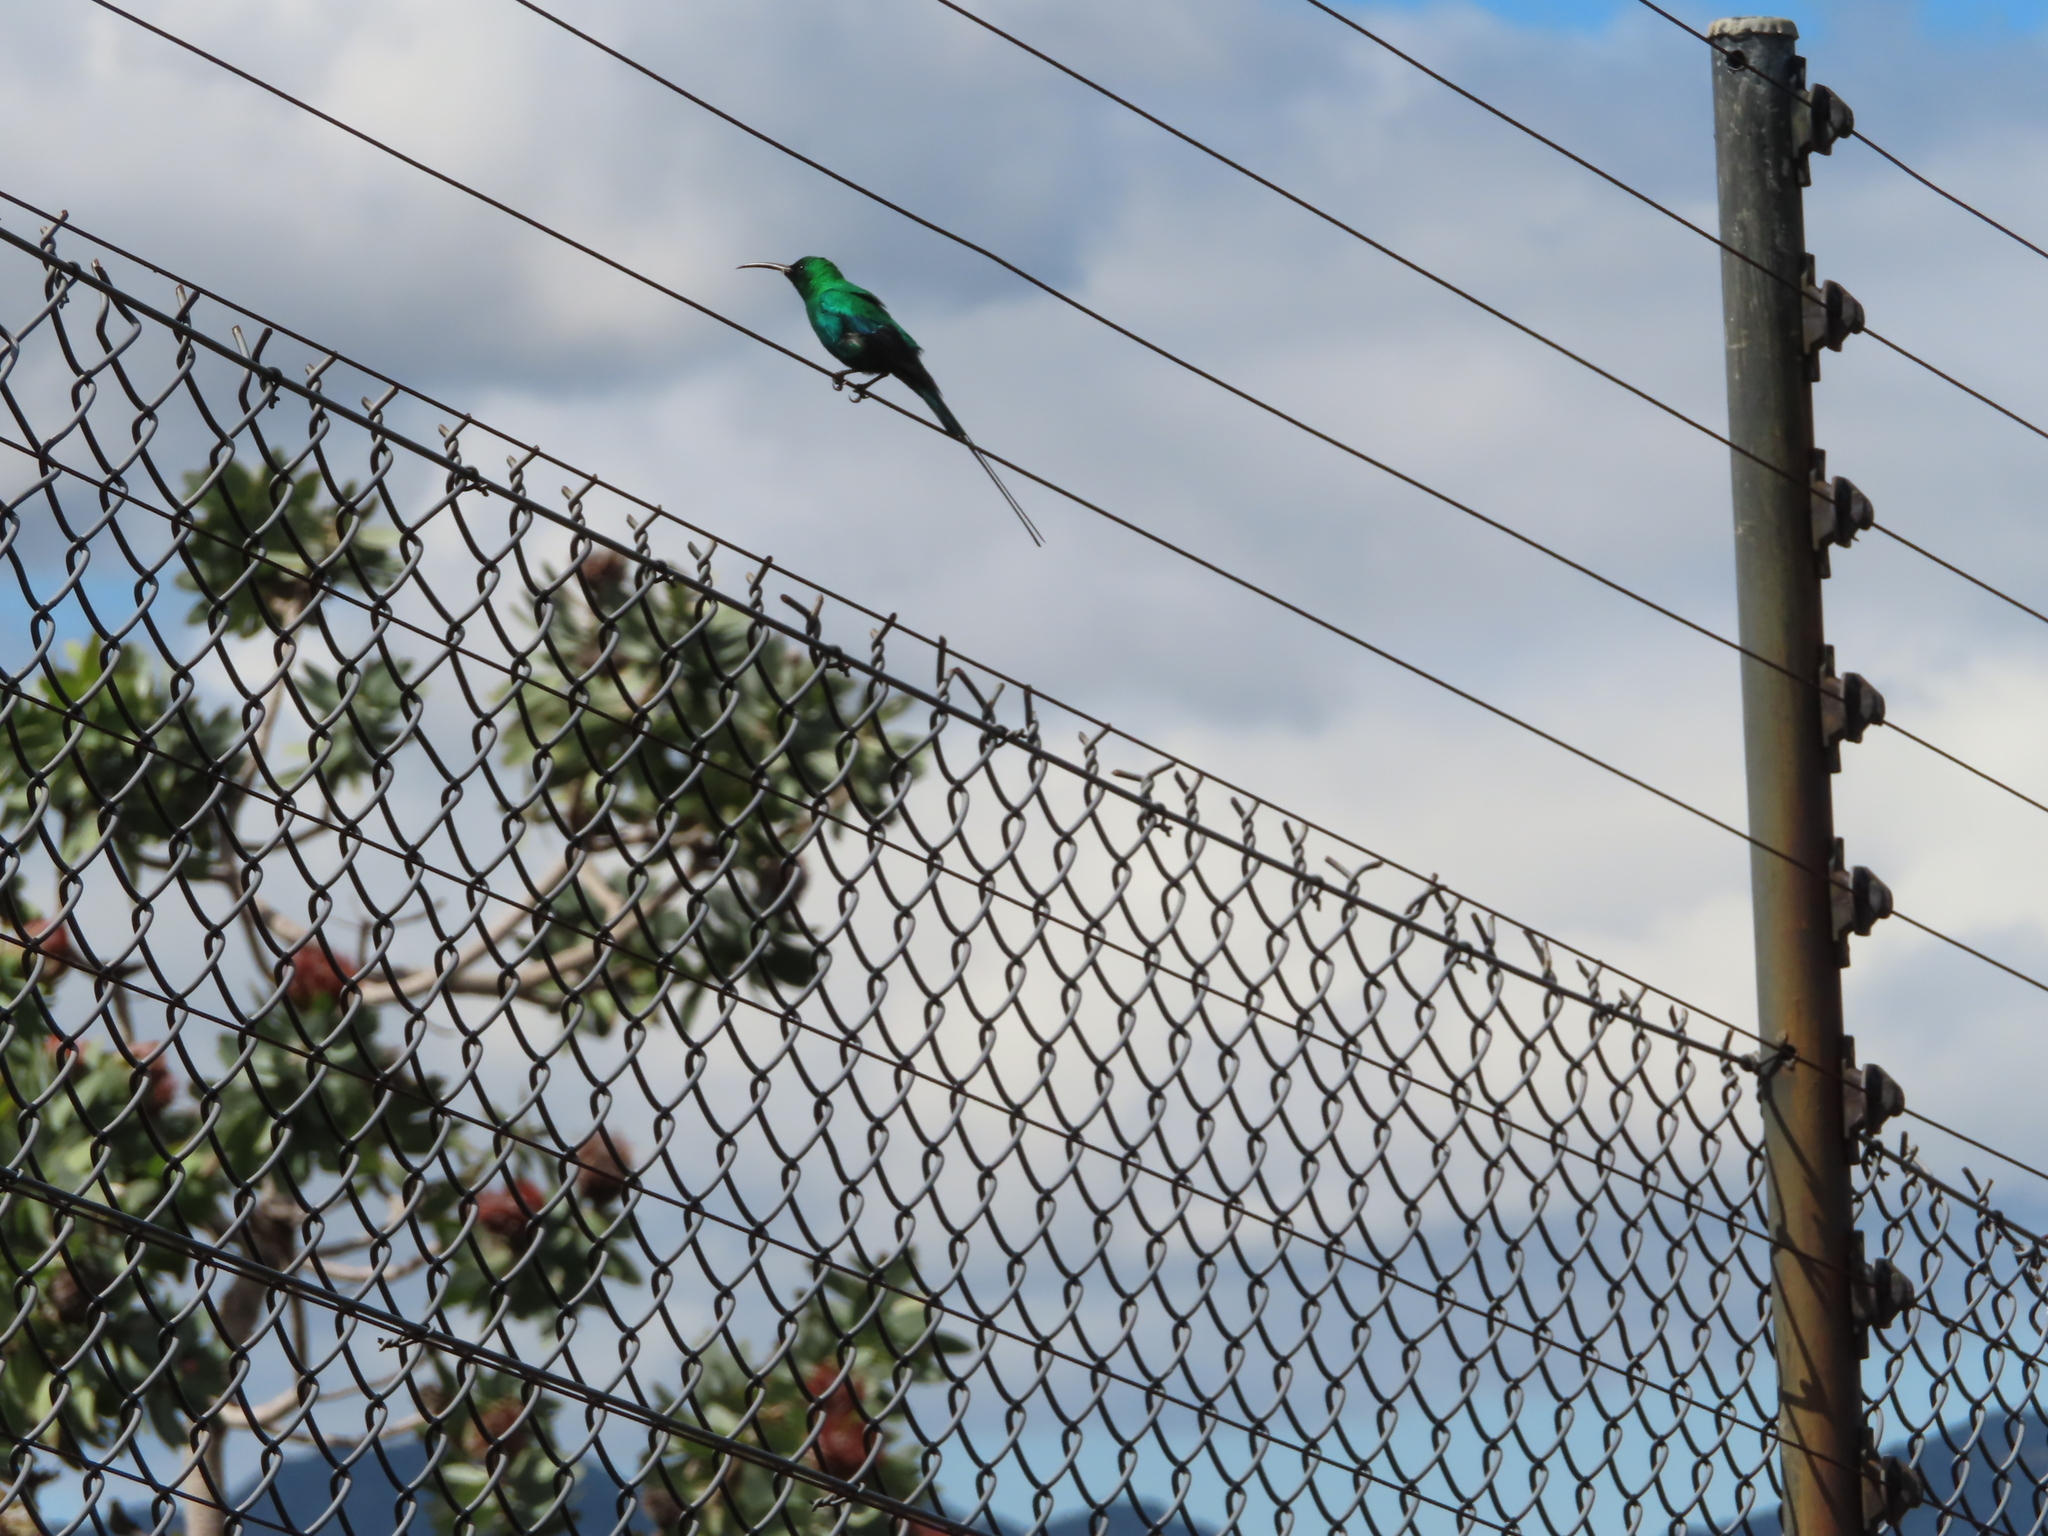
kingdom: Animalia
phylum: Chordata
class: Aves
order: Passeriformes
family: Nectariniidae
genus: Nectarinia
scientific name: Nectarinia famosa
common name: Malachite sunbird
